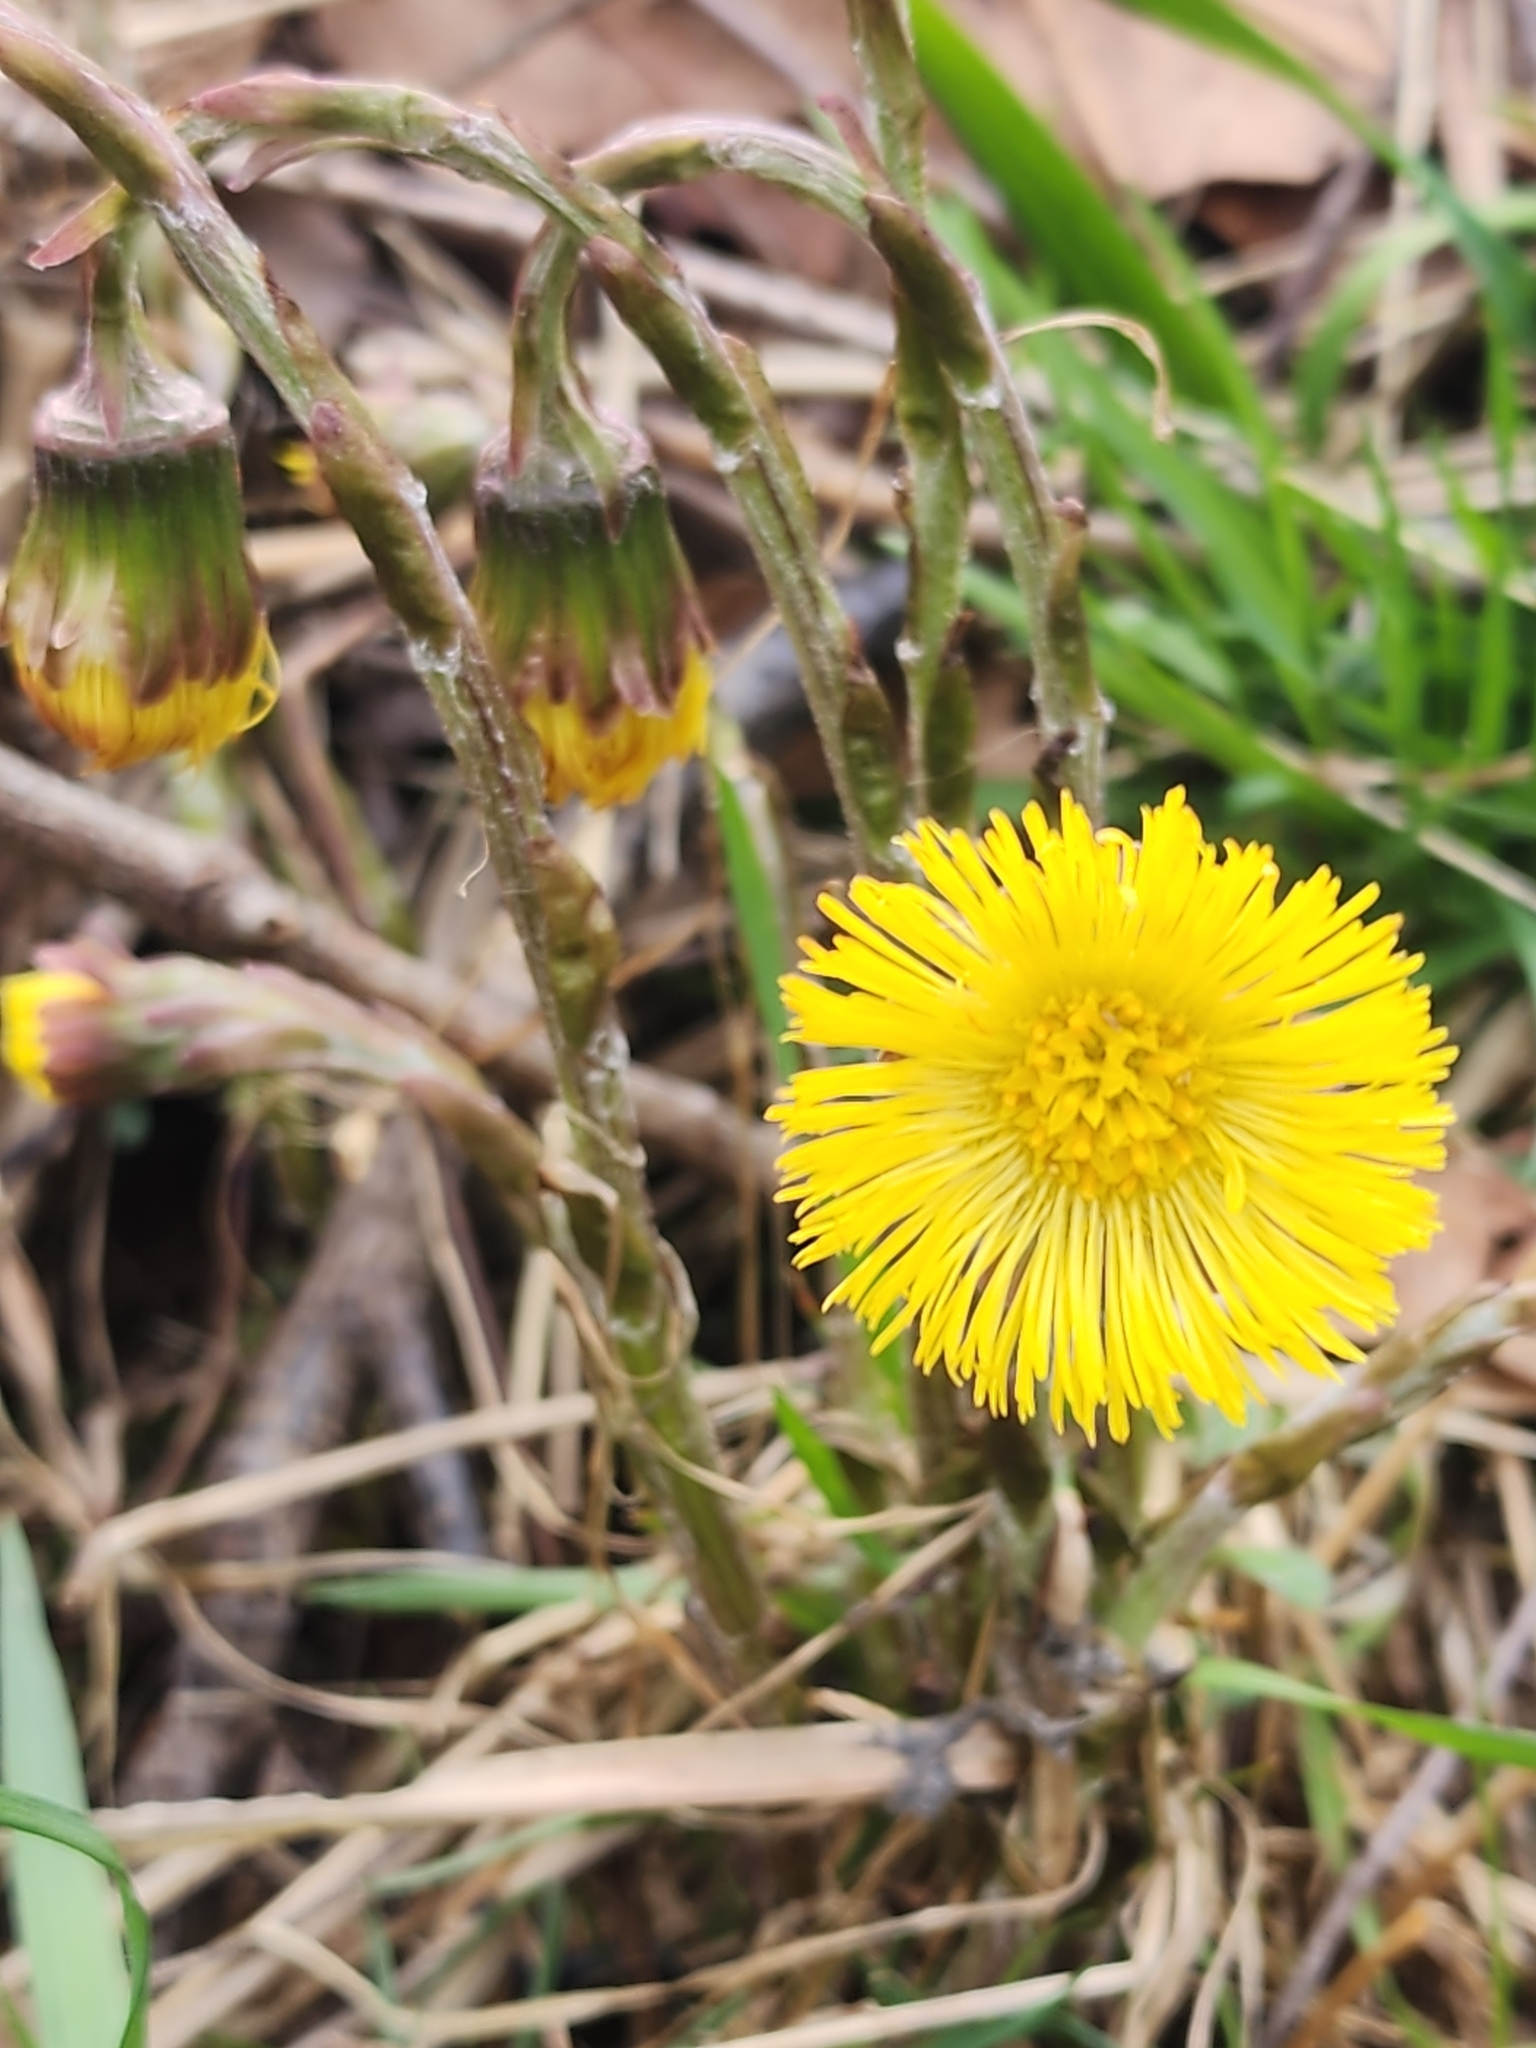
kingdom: Plantae
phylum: Tracheophyta
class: Magnoliopsida
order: Asterales
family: Asteraceae
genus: Tussilago
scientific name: Tussilago farfara
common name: Coltsfoot
